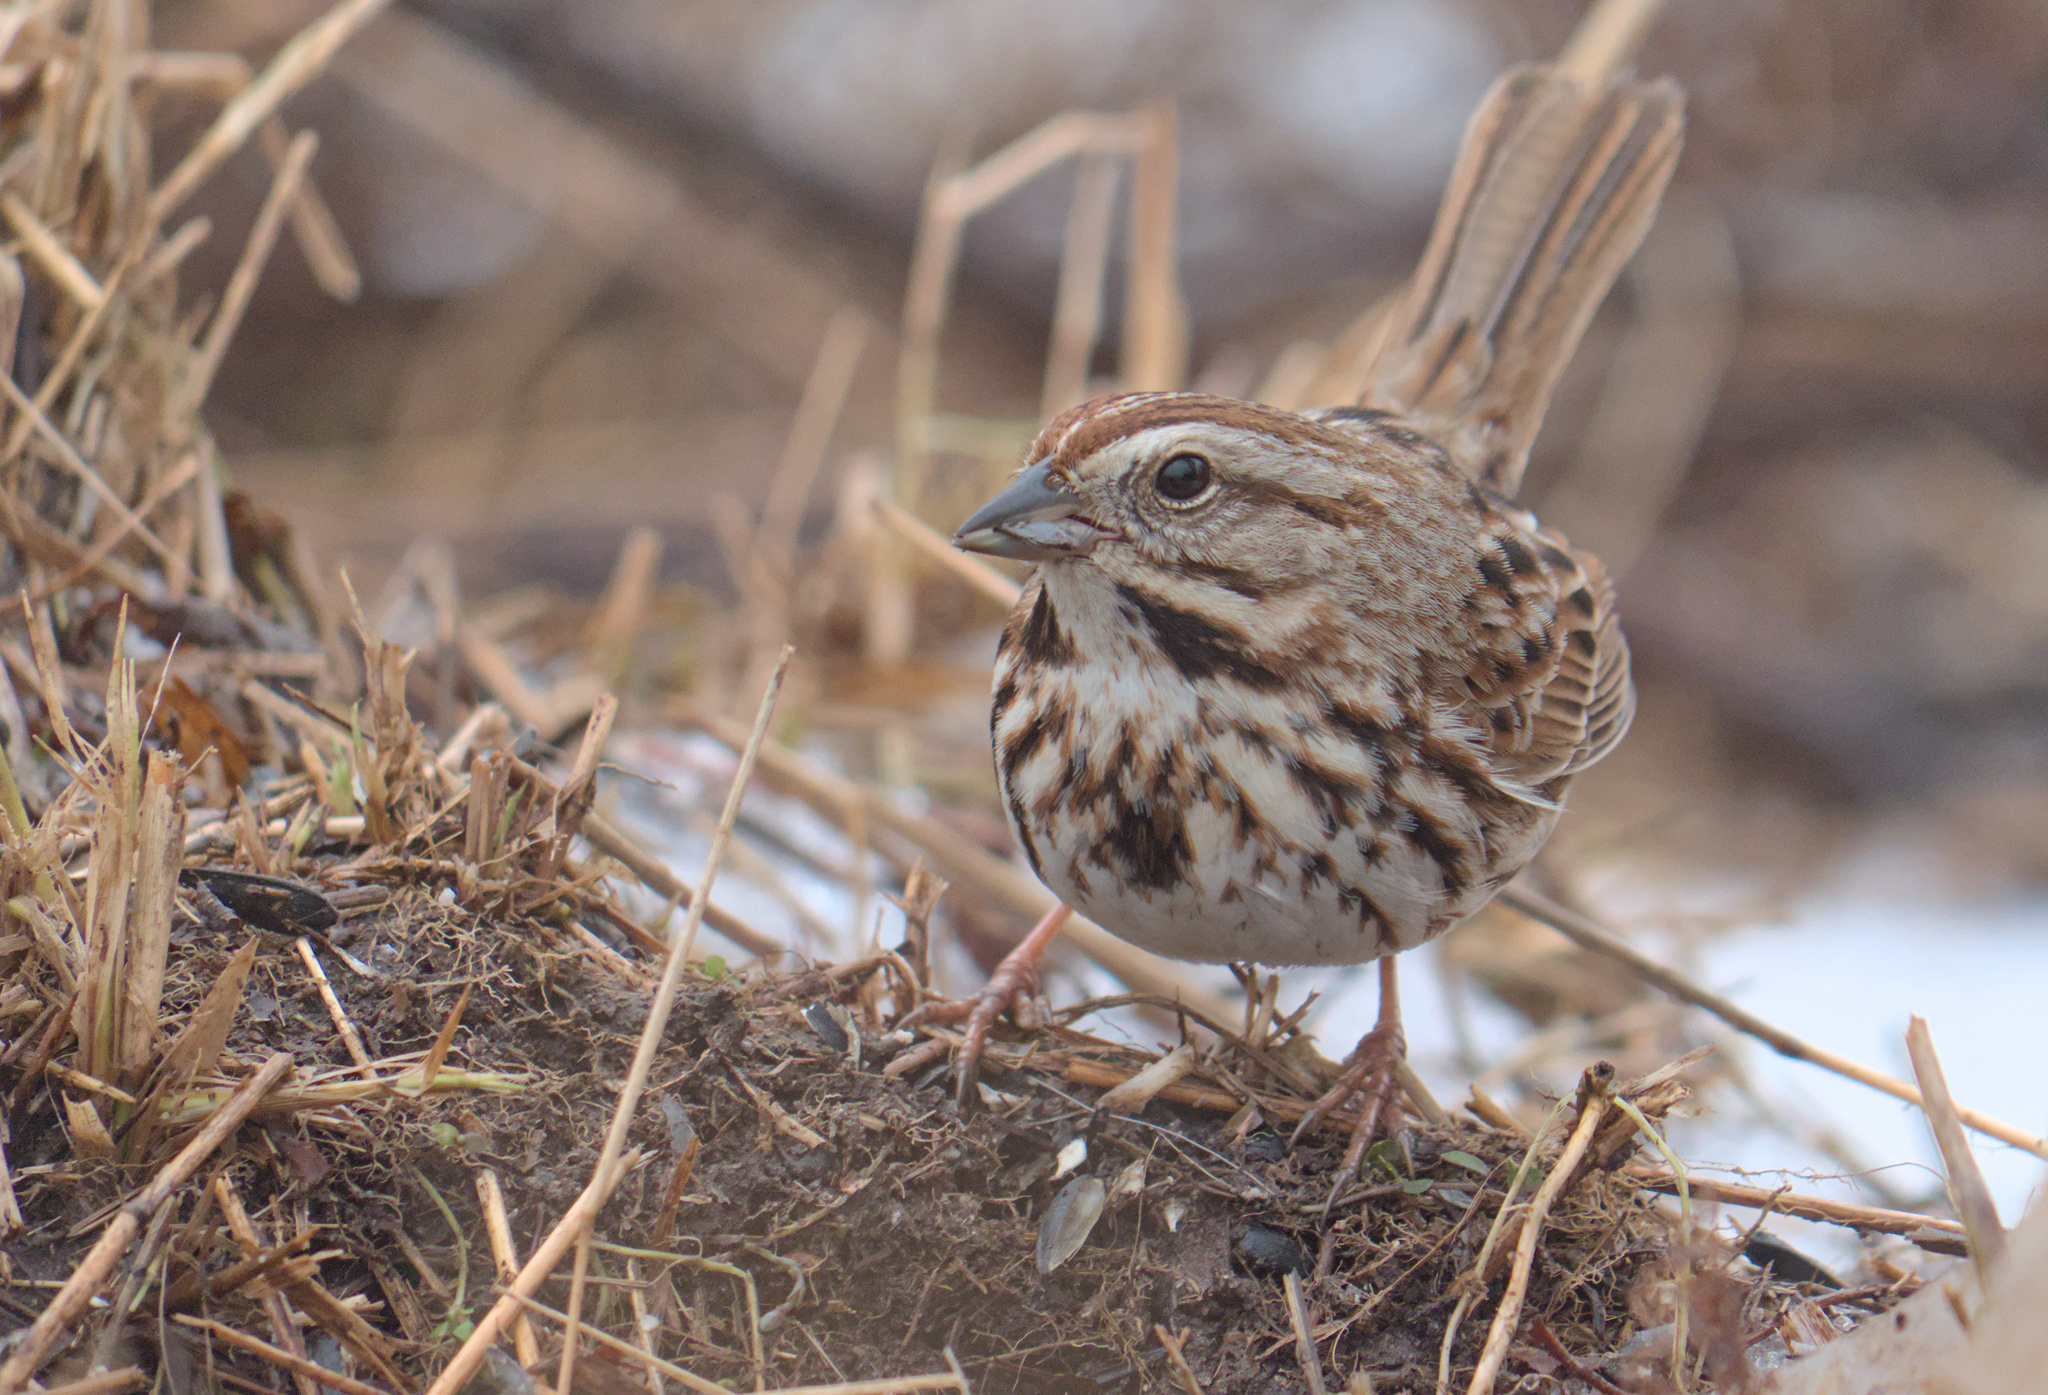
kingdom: Animalia
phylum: Chordata
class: Aves
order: Passeriformes
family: Passerellidae
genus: Melospiza
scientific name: Melospiza melodia
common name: Song sparrow
